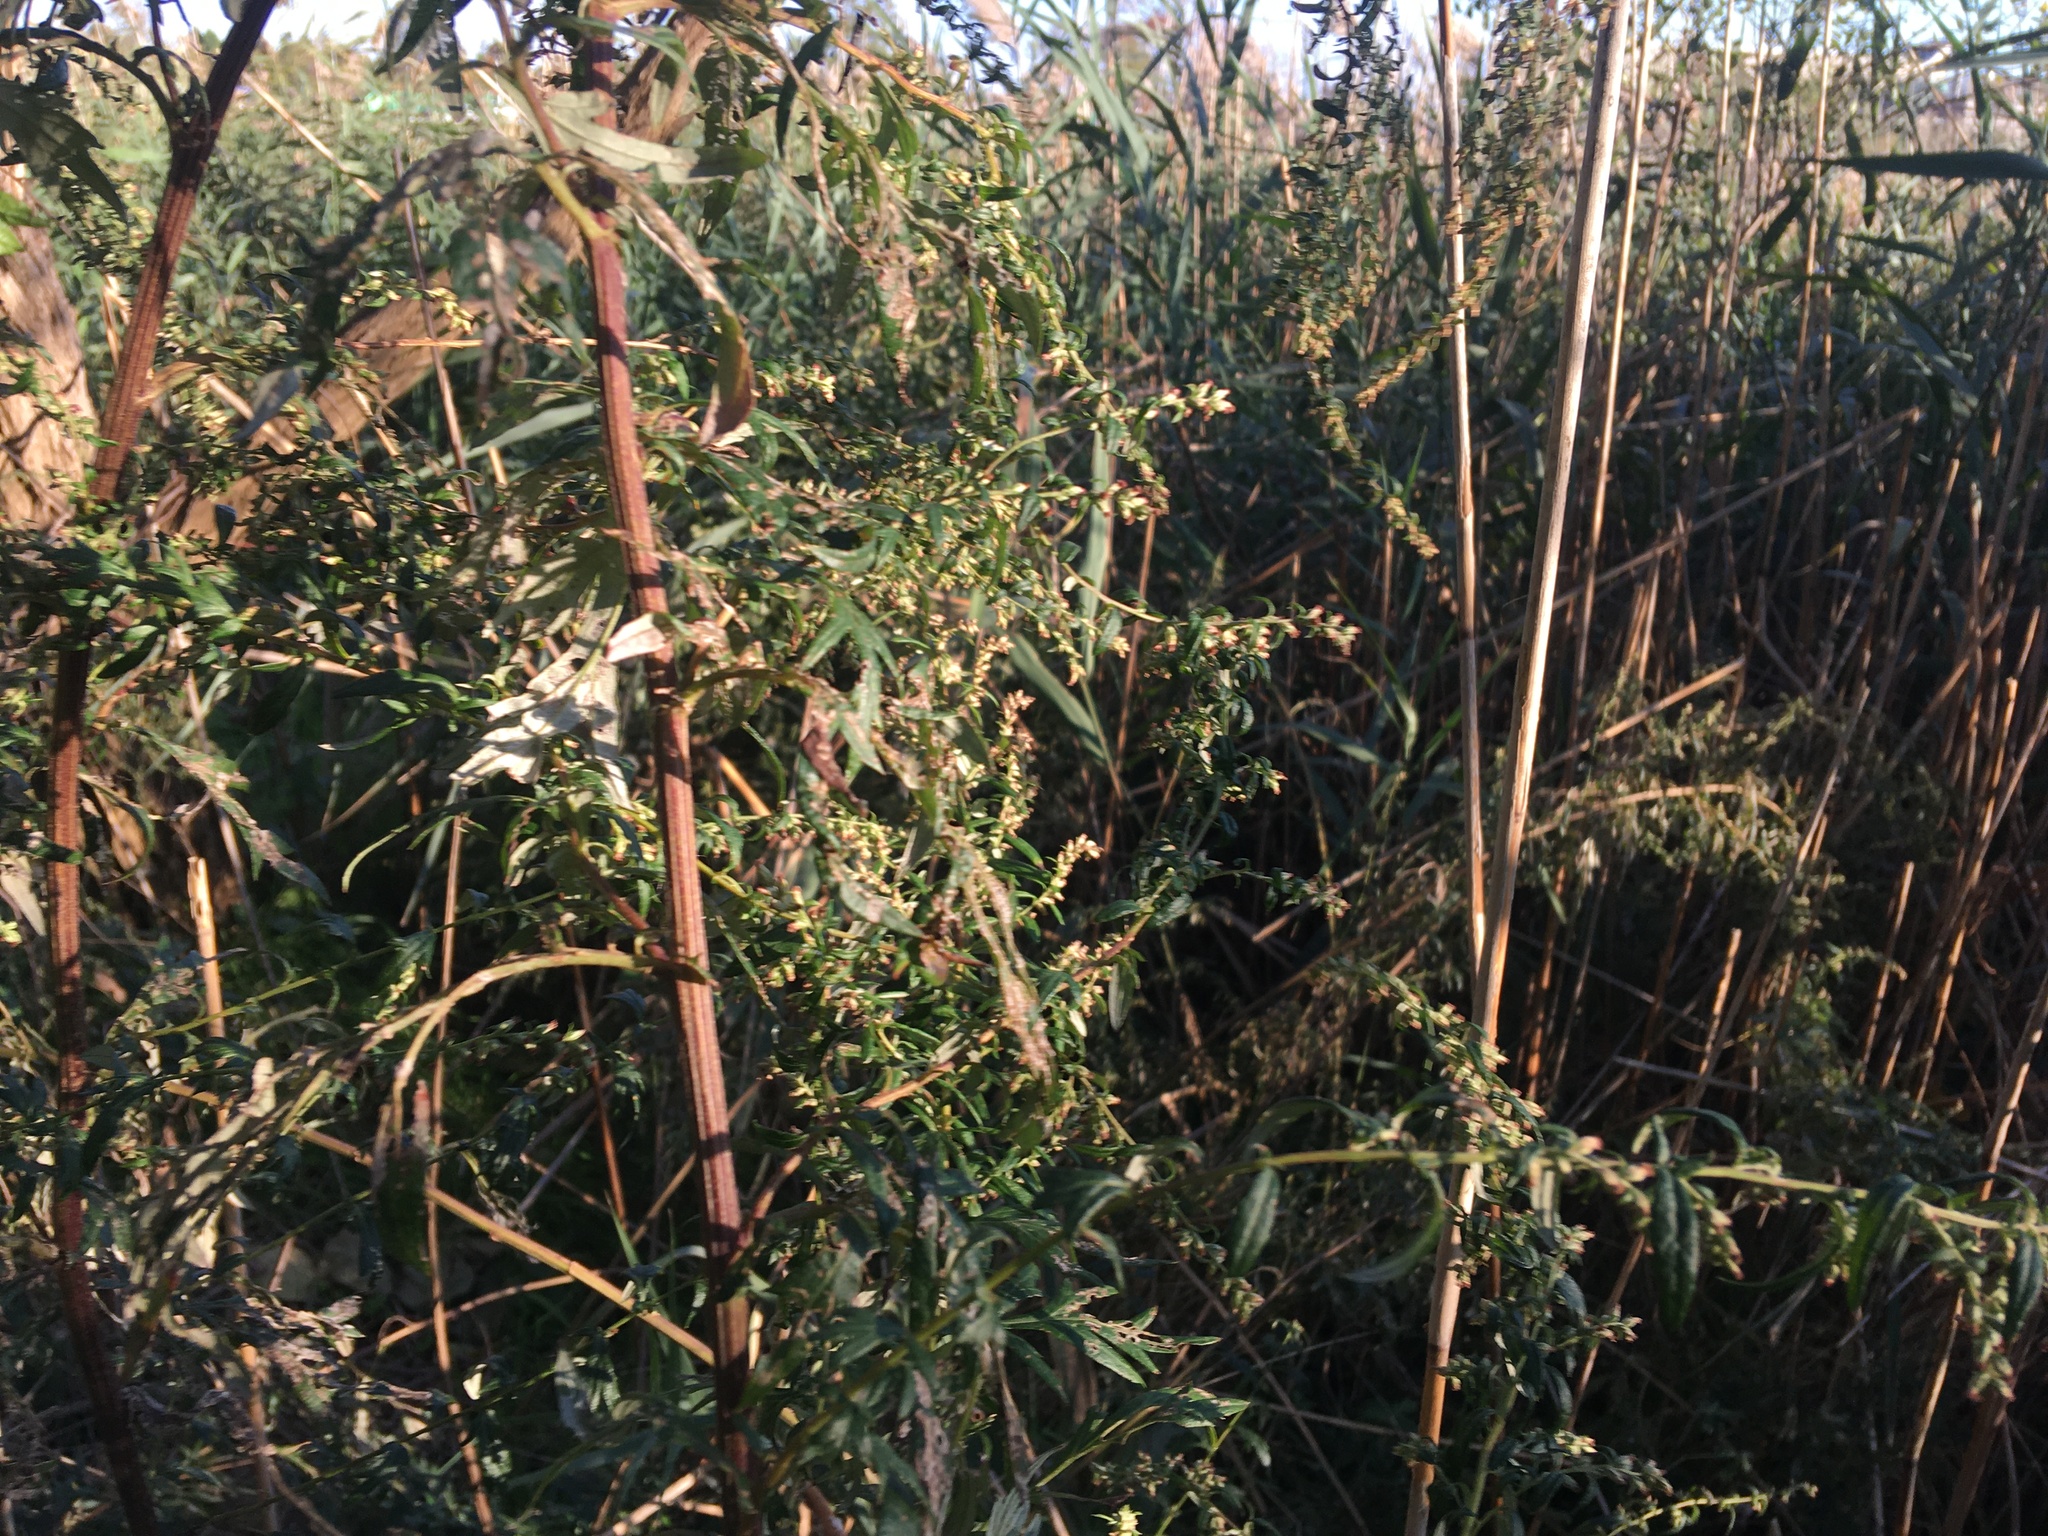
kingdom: Plantae
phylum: Tracheophyta
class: Magnoliopsida
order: Asterales
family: Asteraceae
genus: Artemisia
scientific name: Artemisia vulgaris
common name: Mugwort
